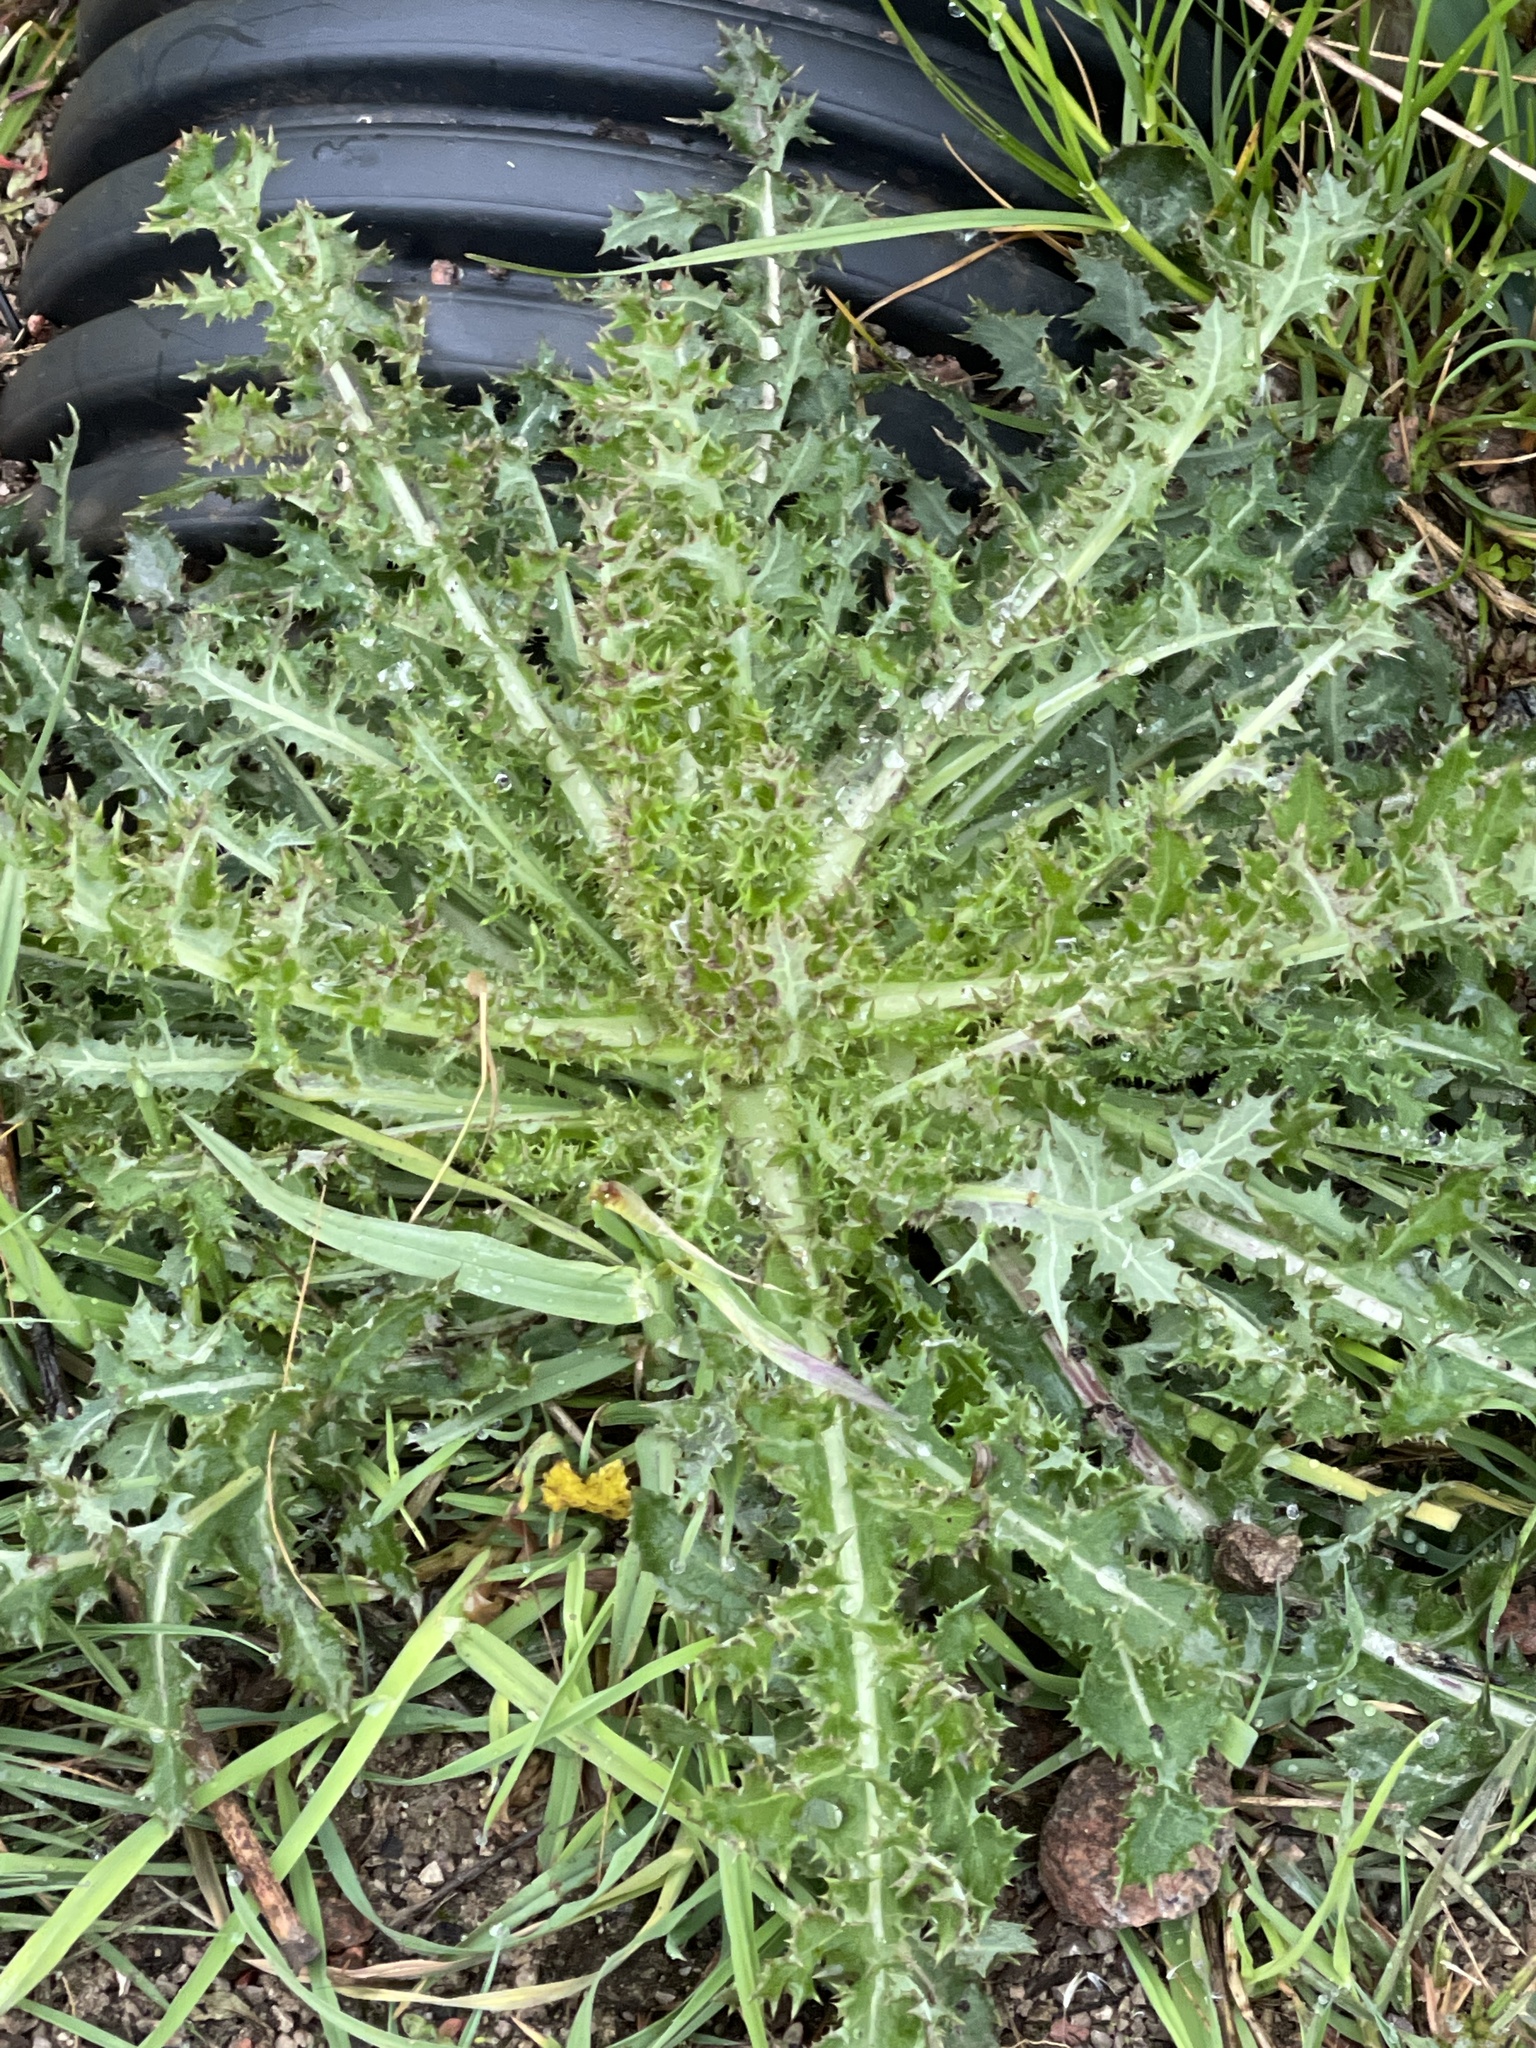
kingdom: Plantae
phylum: Tracheophyta
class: Magnoliopsida
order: Asterales
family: Asteraceae
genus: Sonchus
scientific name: Sonchus asper
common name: Prickly sow-thistle
